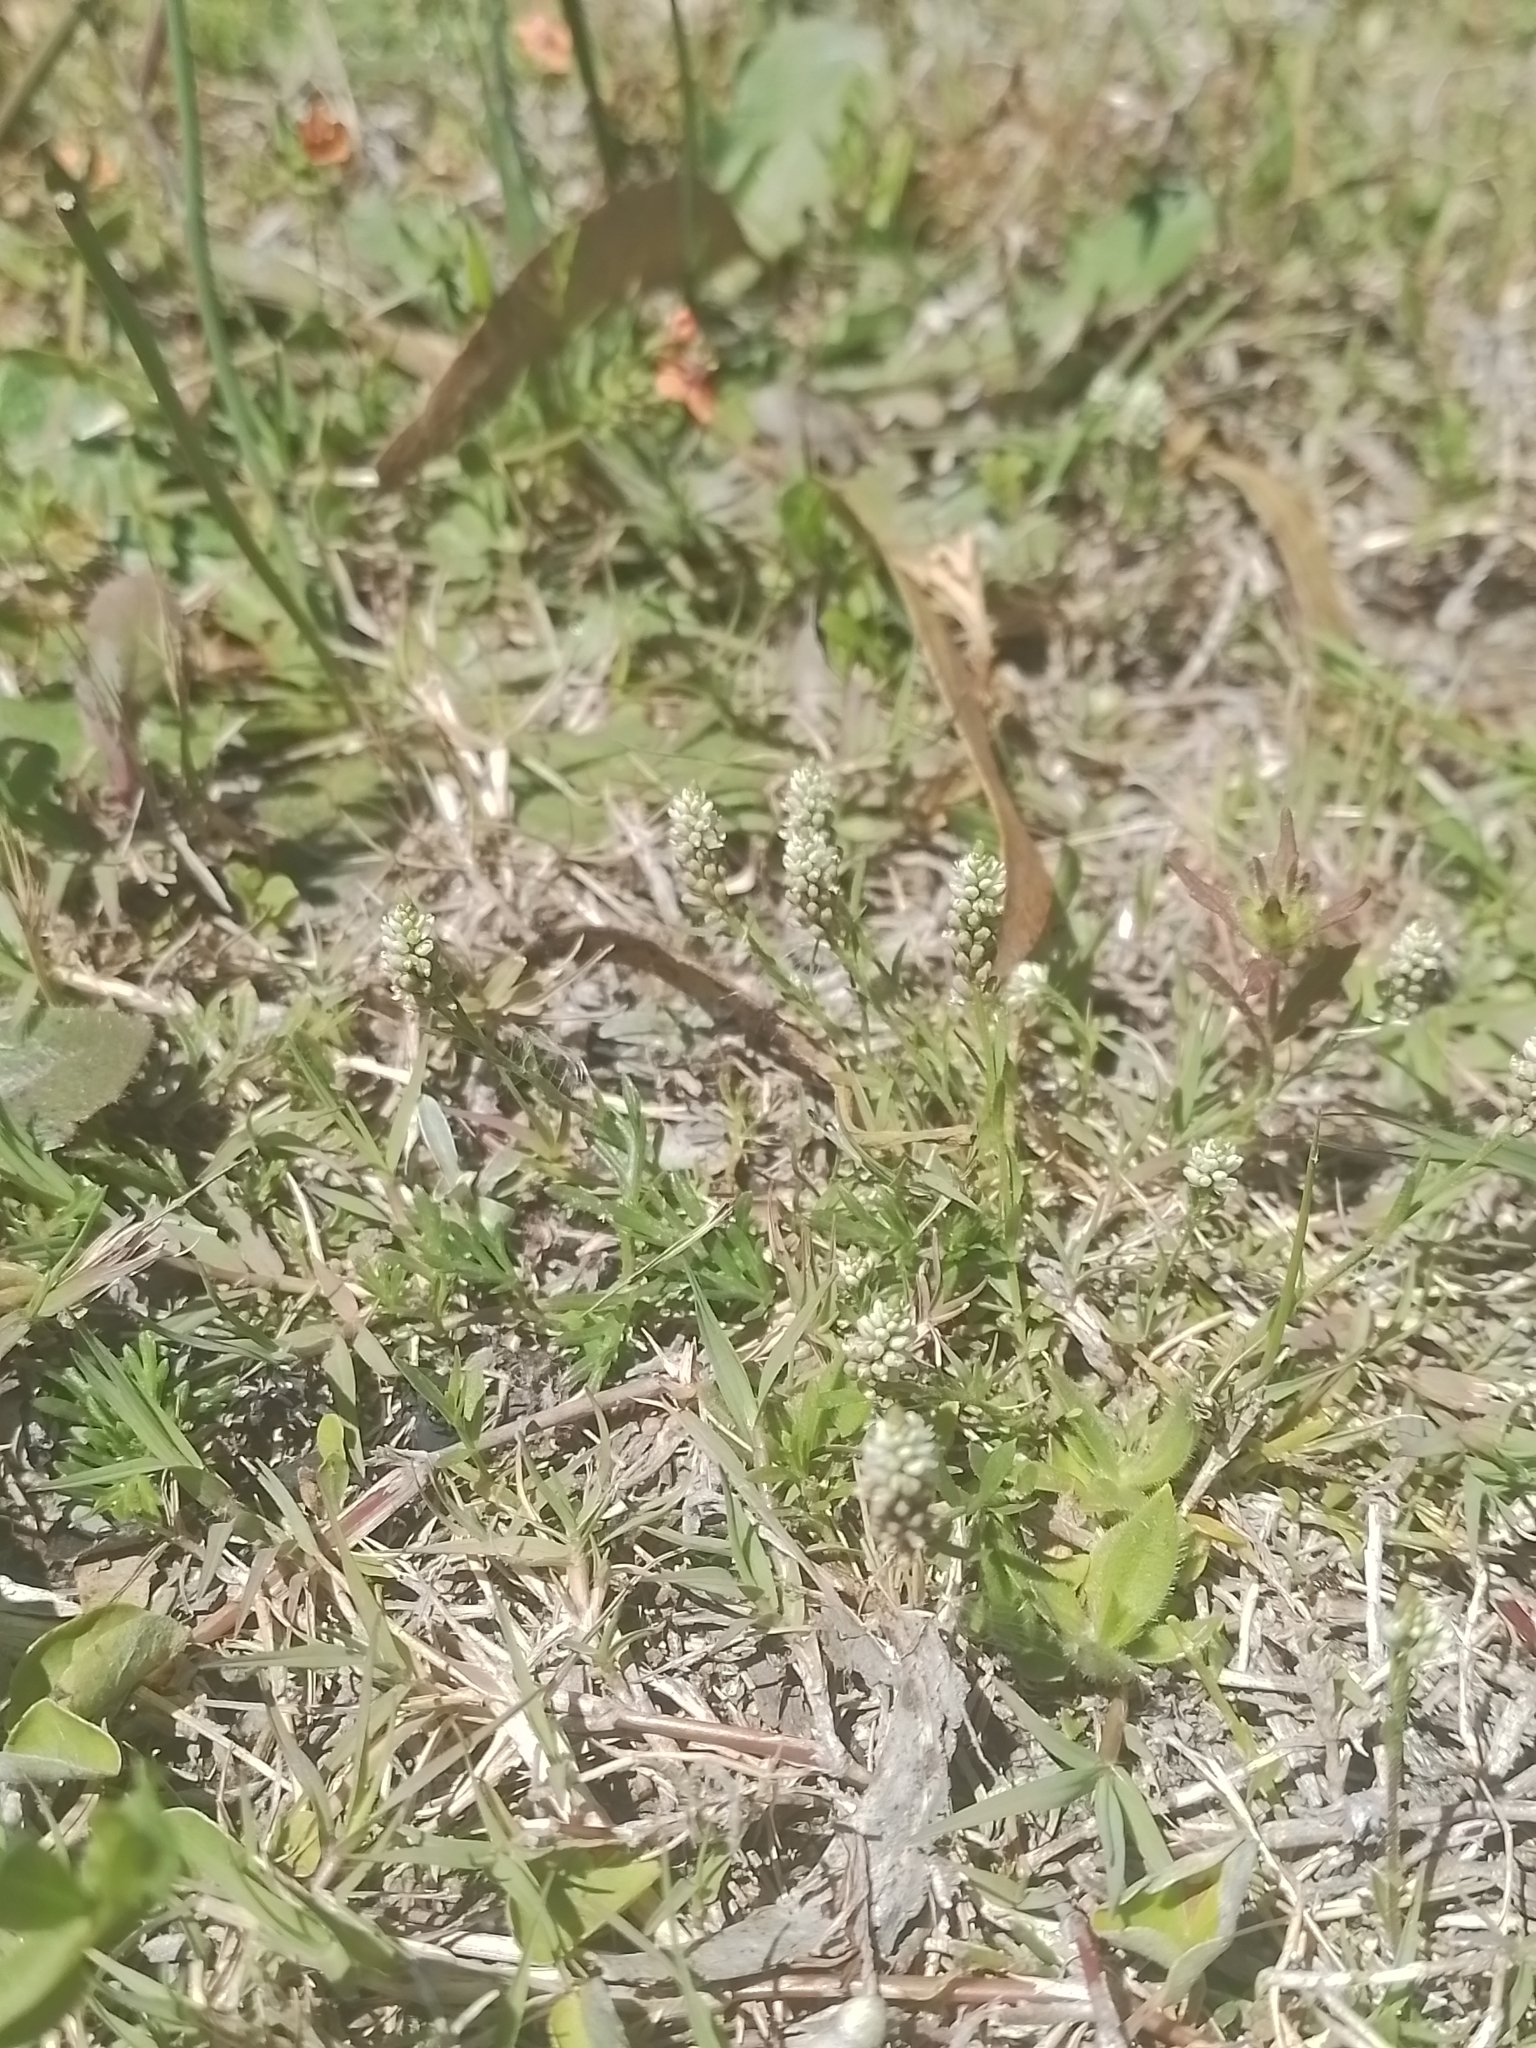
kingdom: Plantae
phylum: Tracheophyta
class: Magnoliopsida
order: Fabales
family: Polygalaceae
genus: Polygala
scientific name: Polygala australis
